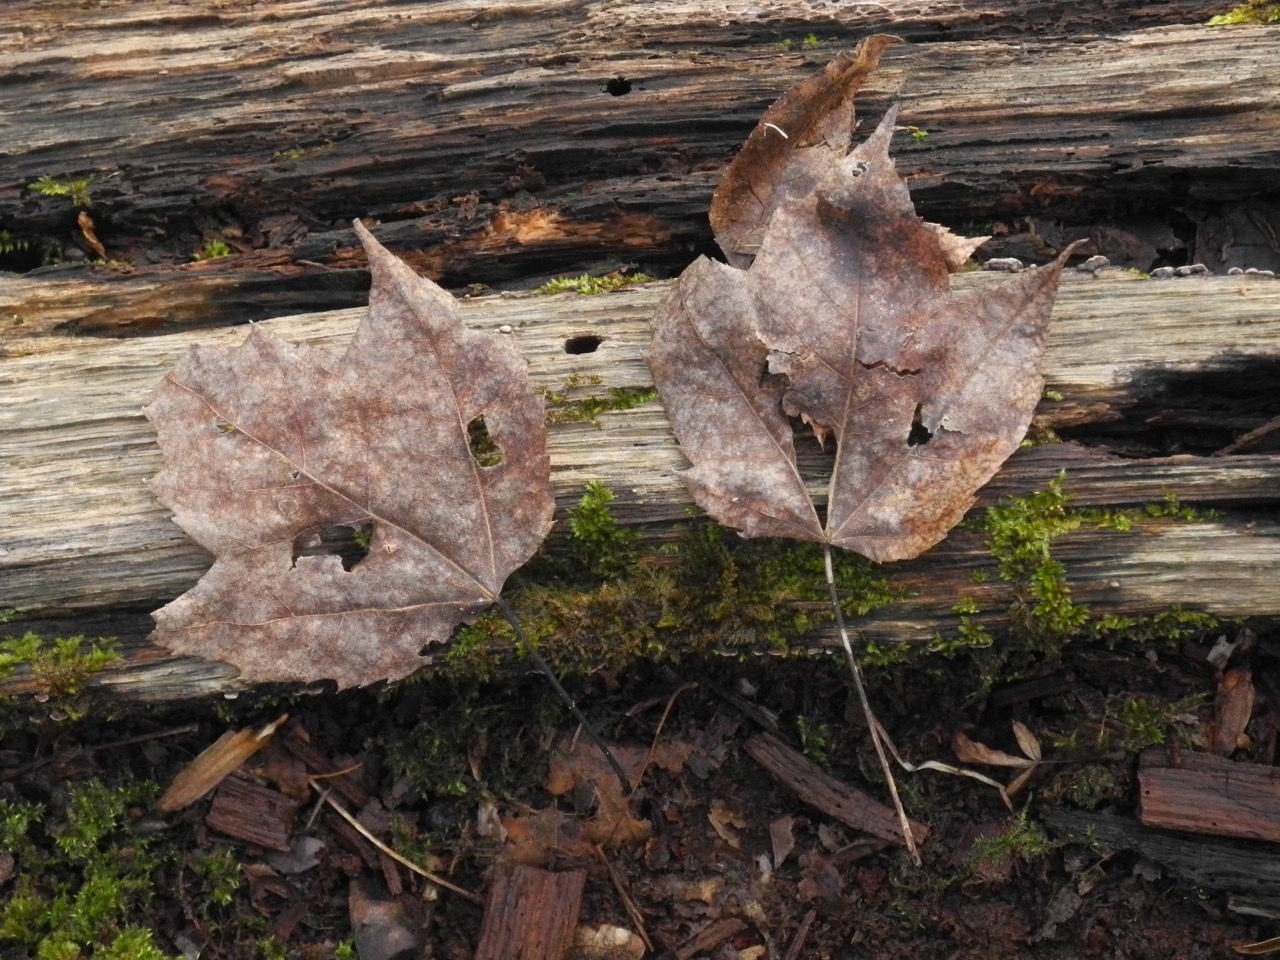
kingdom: Plantae
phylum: Tracheophyta
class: Magnoliopsida
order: Sapindales
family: Sapindaceae
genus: Acer
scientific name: Acer rubrum
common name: Red maple
